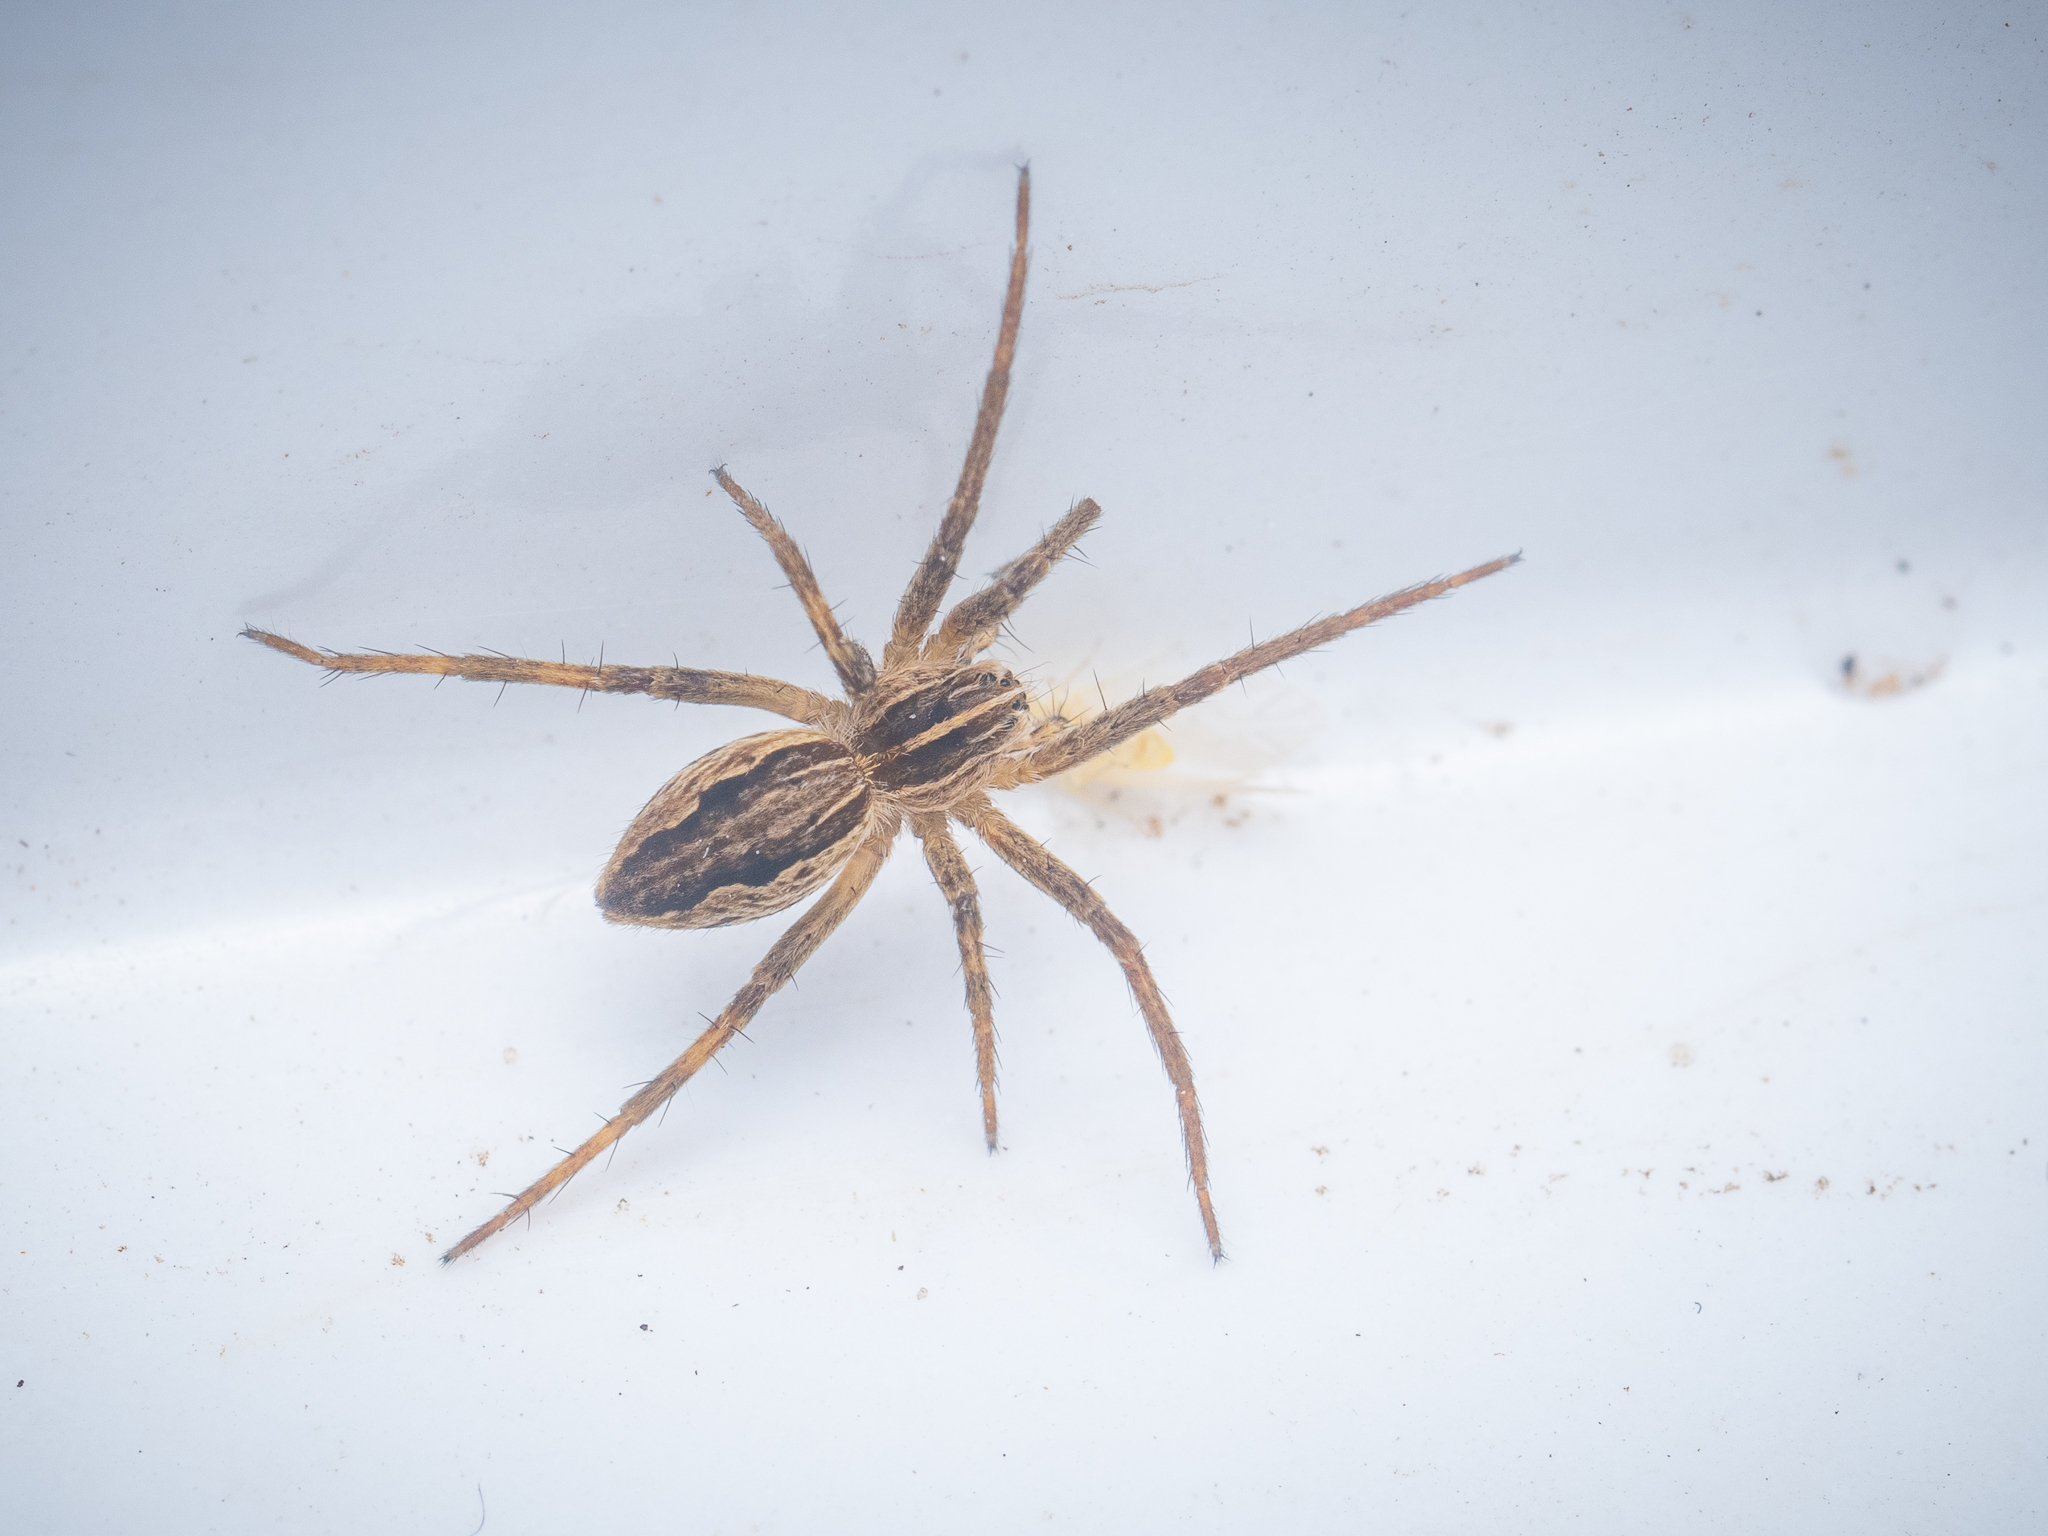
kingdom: Animalia
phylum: Arthropoda
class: Arachnida
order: Araneae
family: Pisauridae
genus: Pisaura
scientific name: Pisaura mirabilis
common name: Tent spider
